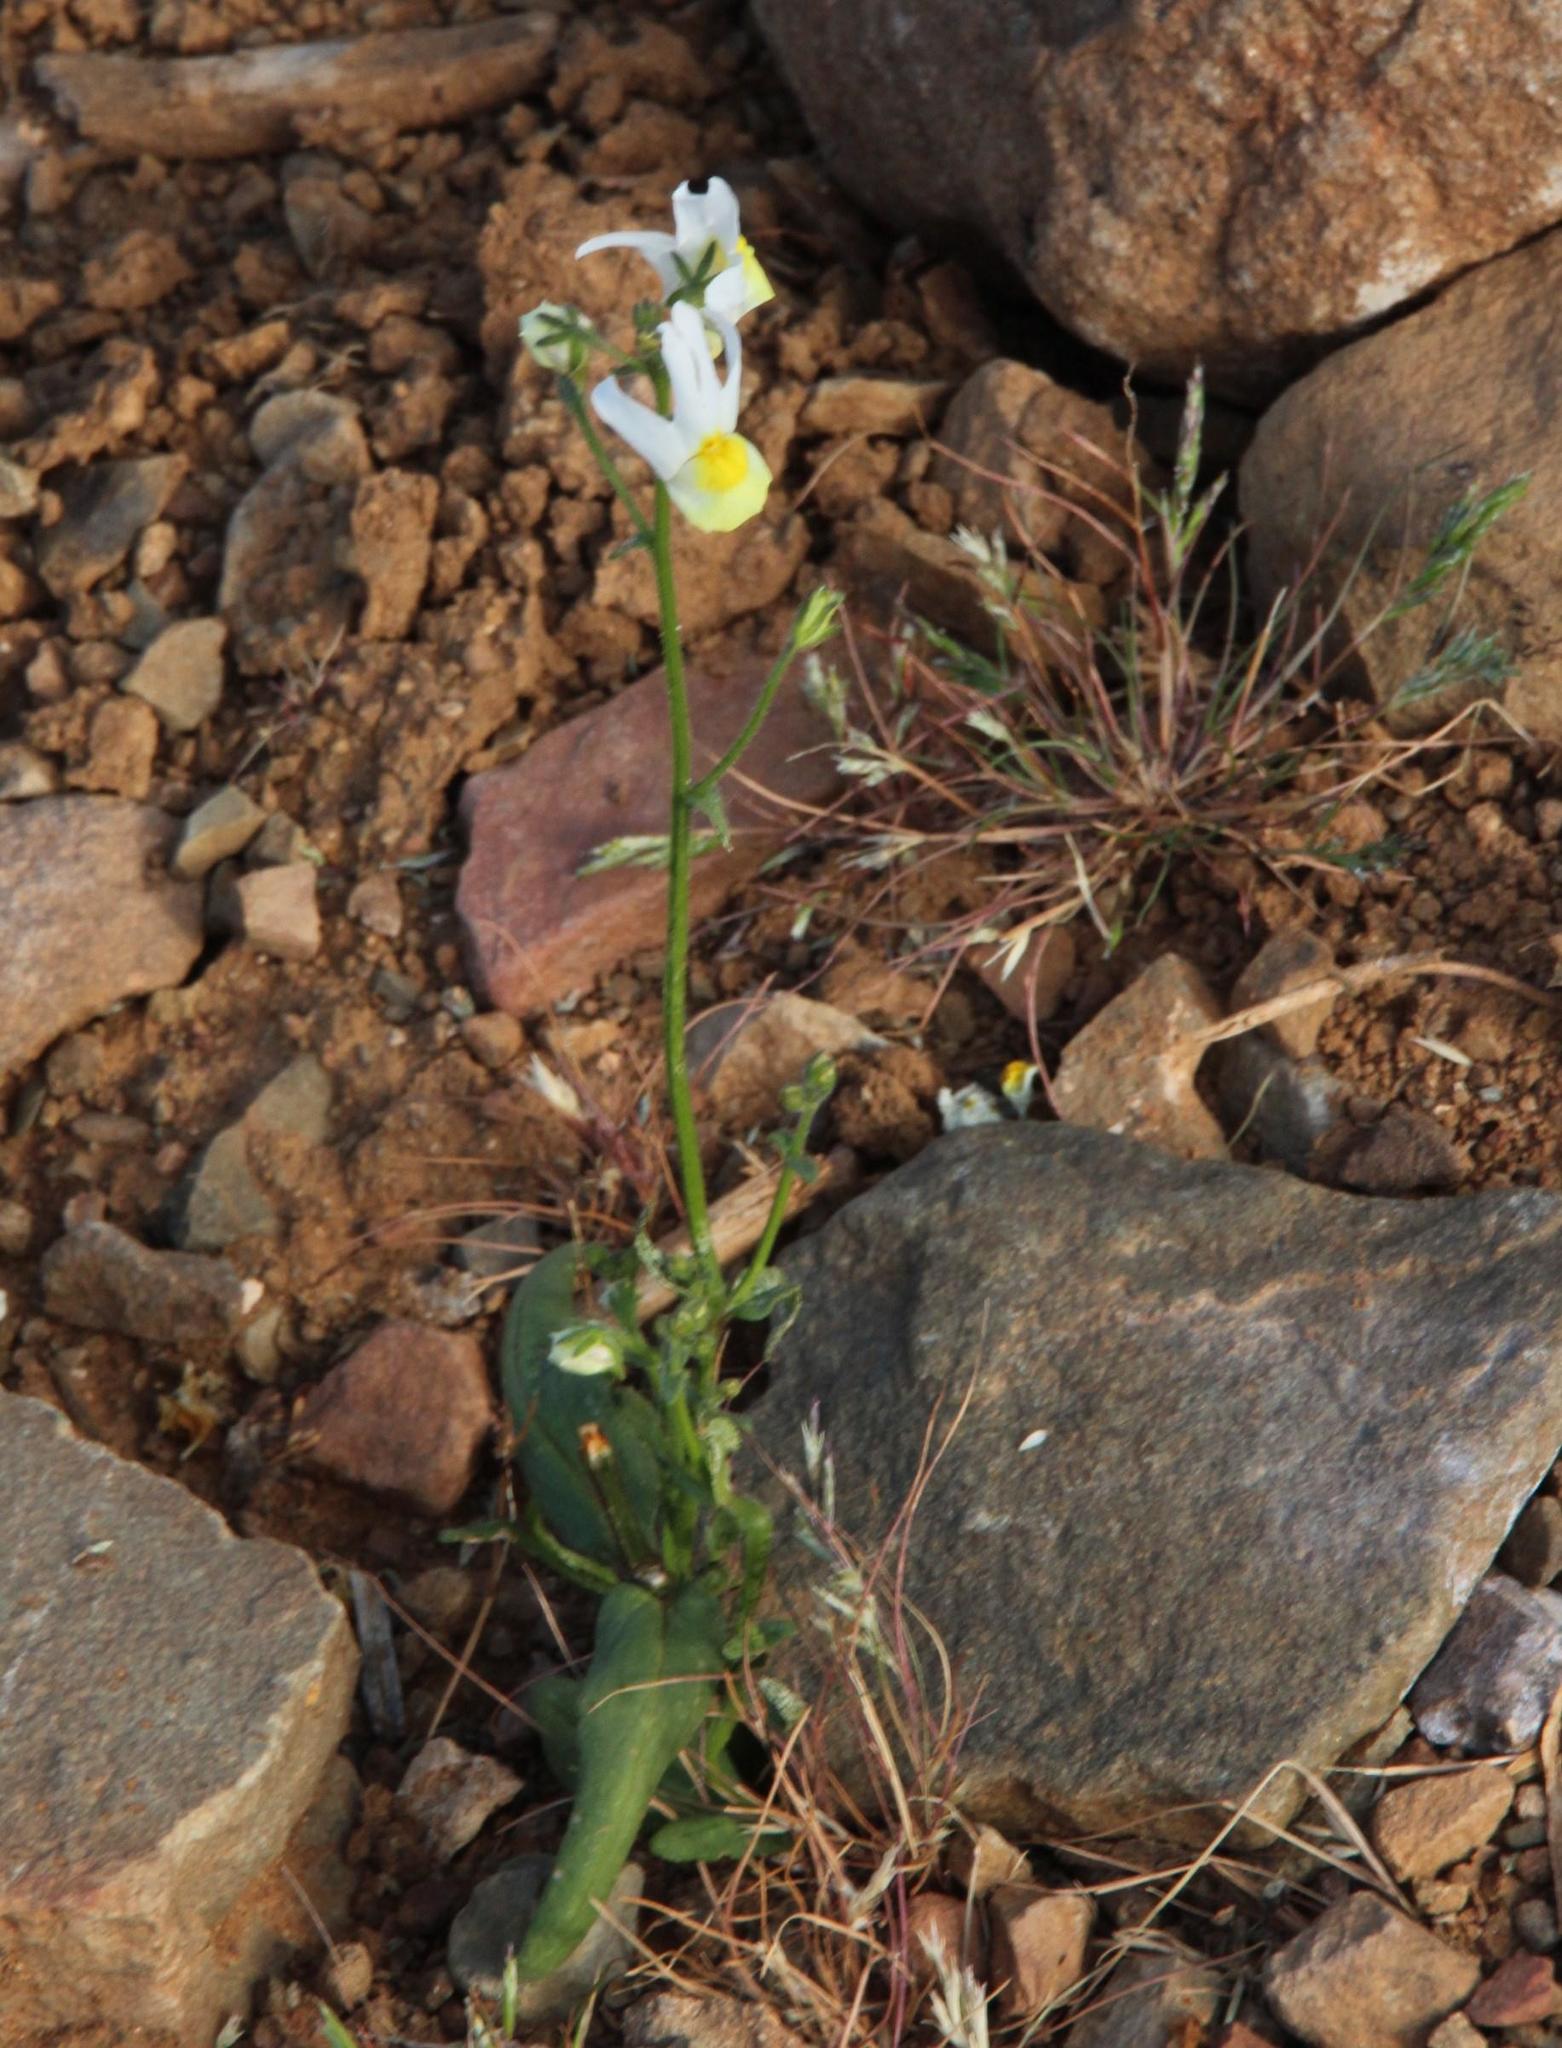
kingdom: Plantae
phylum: Tracheophyta
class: Magnoliopsida
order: Lamiales
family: Scrophulariaceae
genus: Nemesia
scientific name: Nemesia anisocarpa
